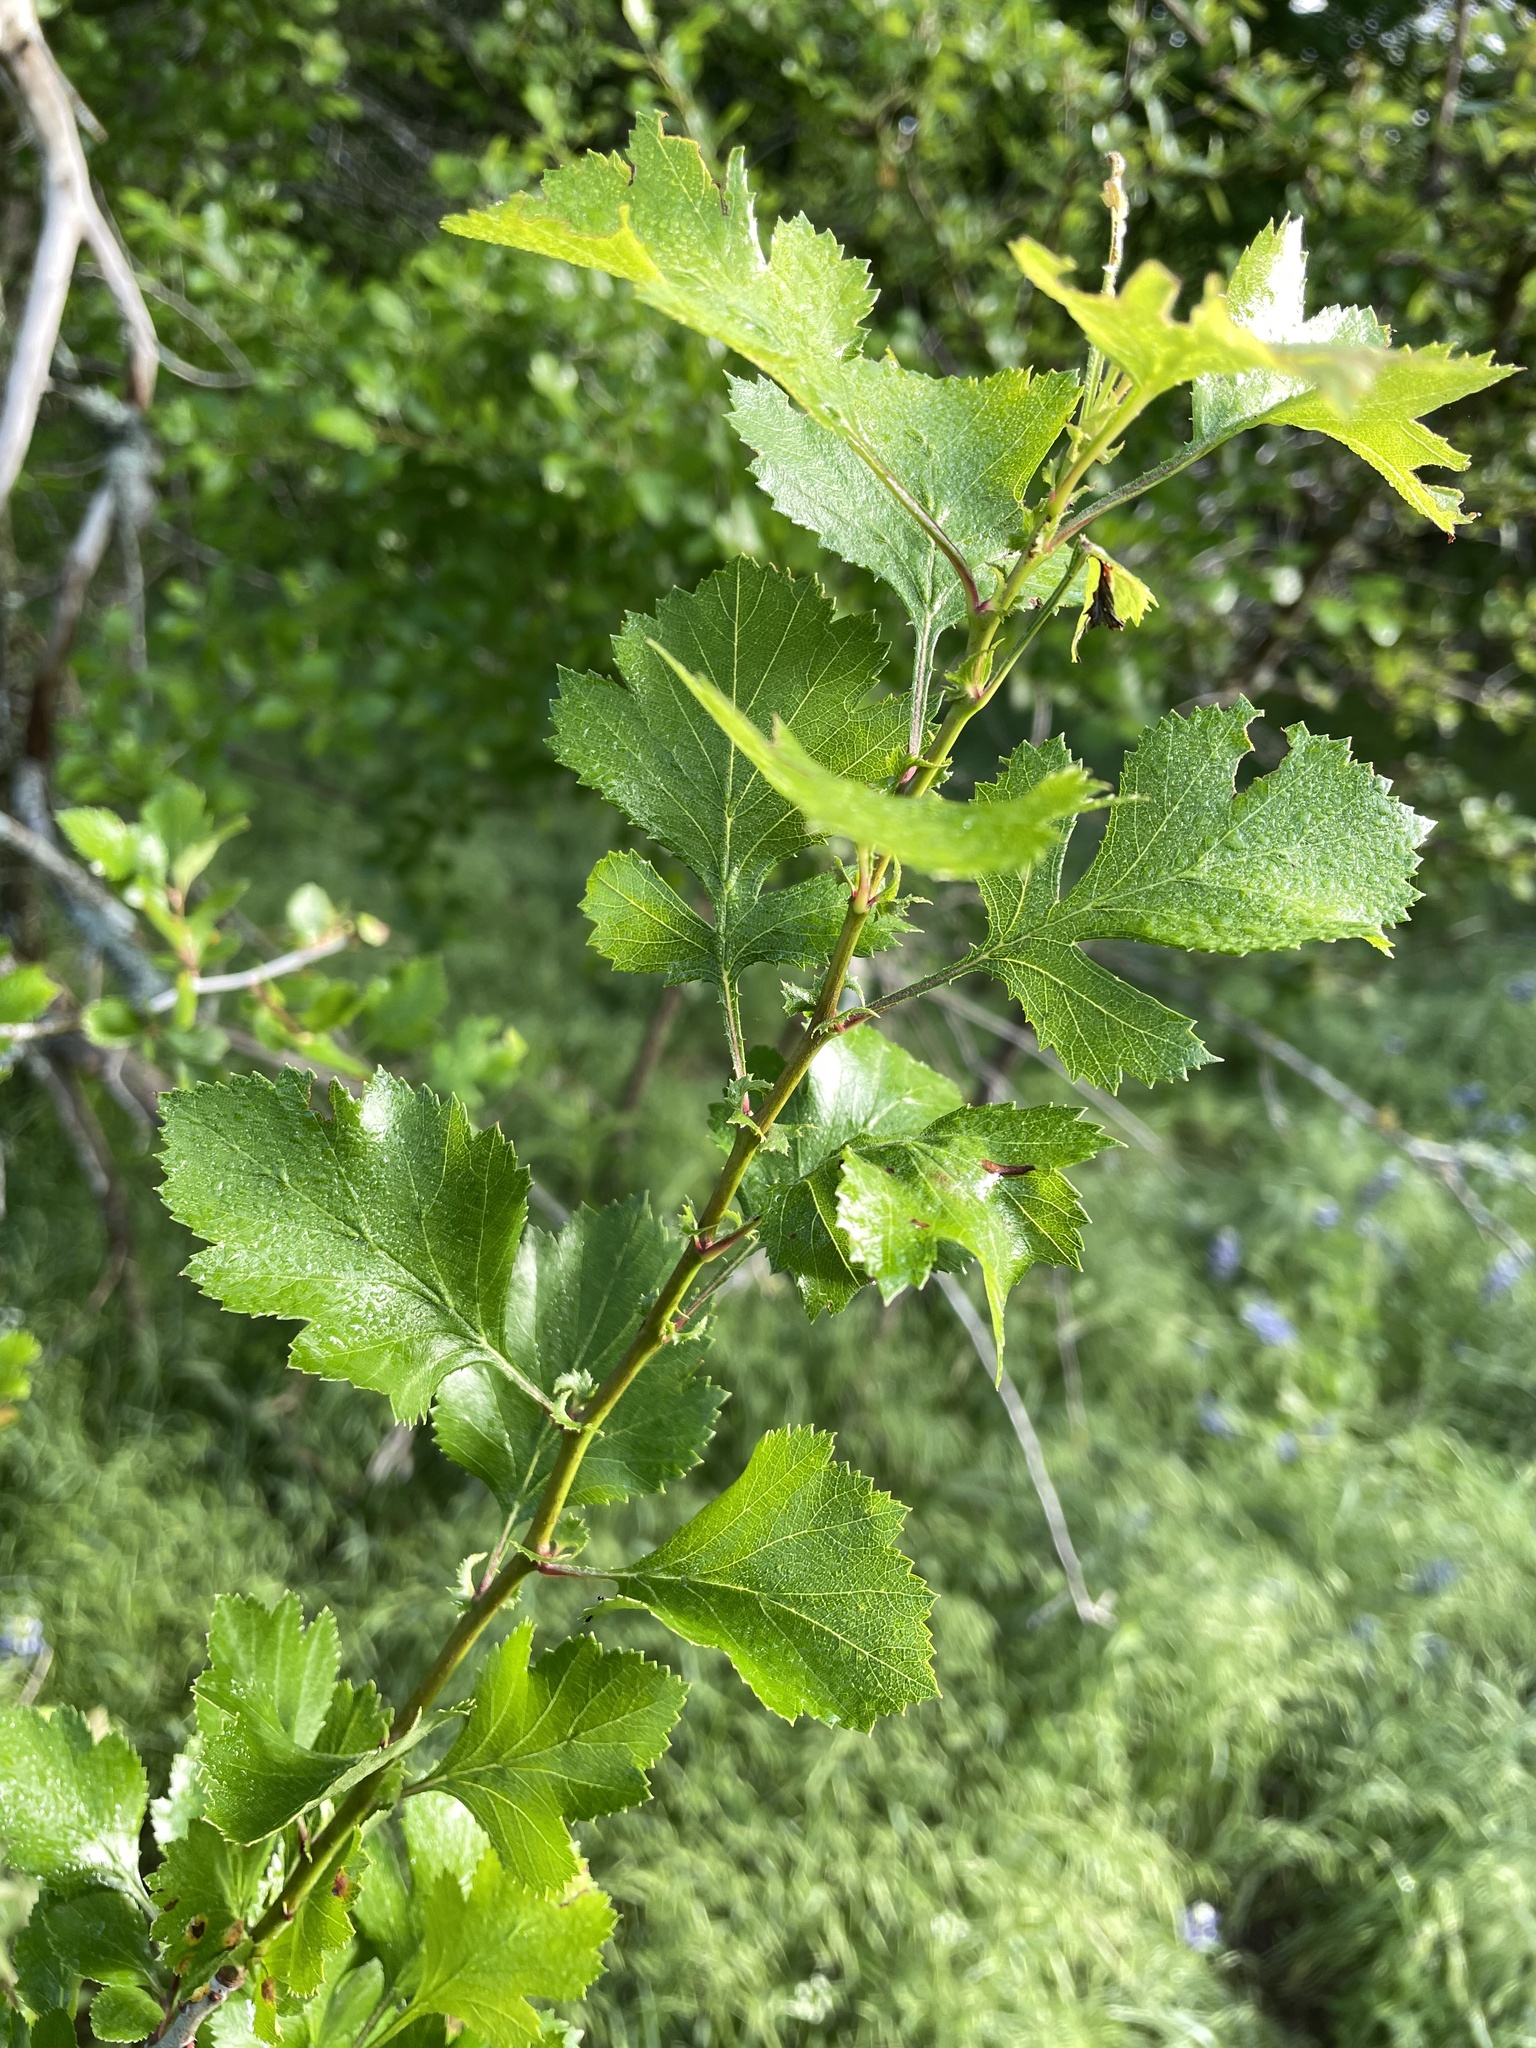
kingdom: Plantae
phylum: Tracheophyta
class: Magnoliopsida
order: Rosales
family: Rosaceae
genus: Crataegus
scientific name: Crataegus viridis
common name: Southernthorn
